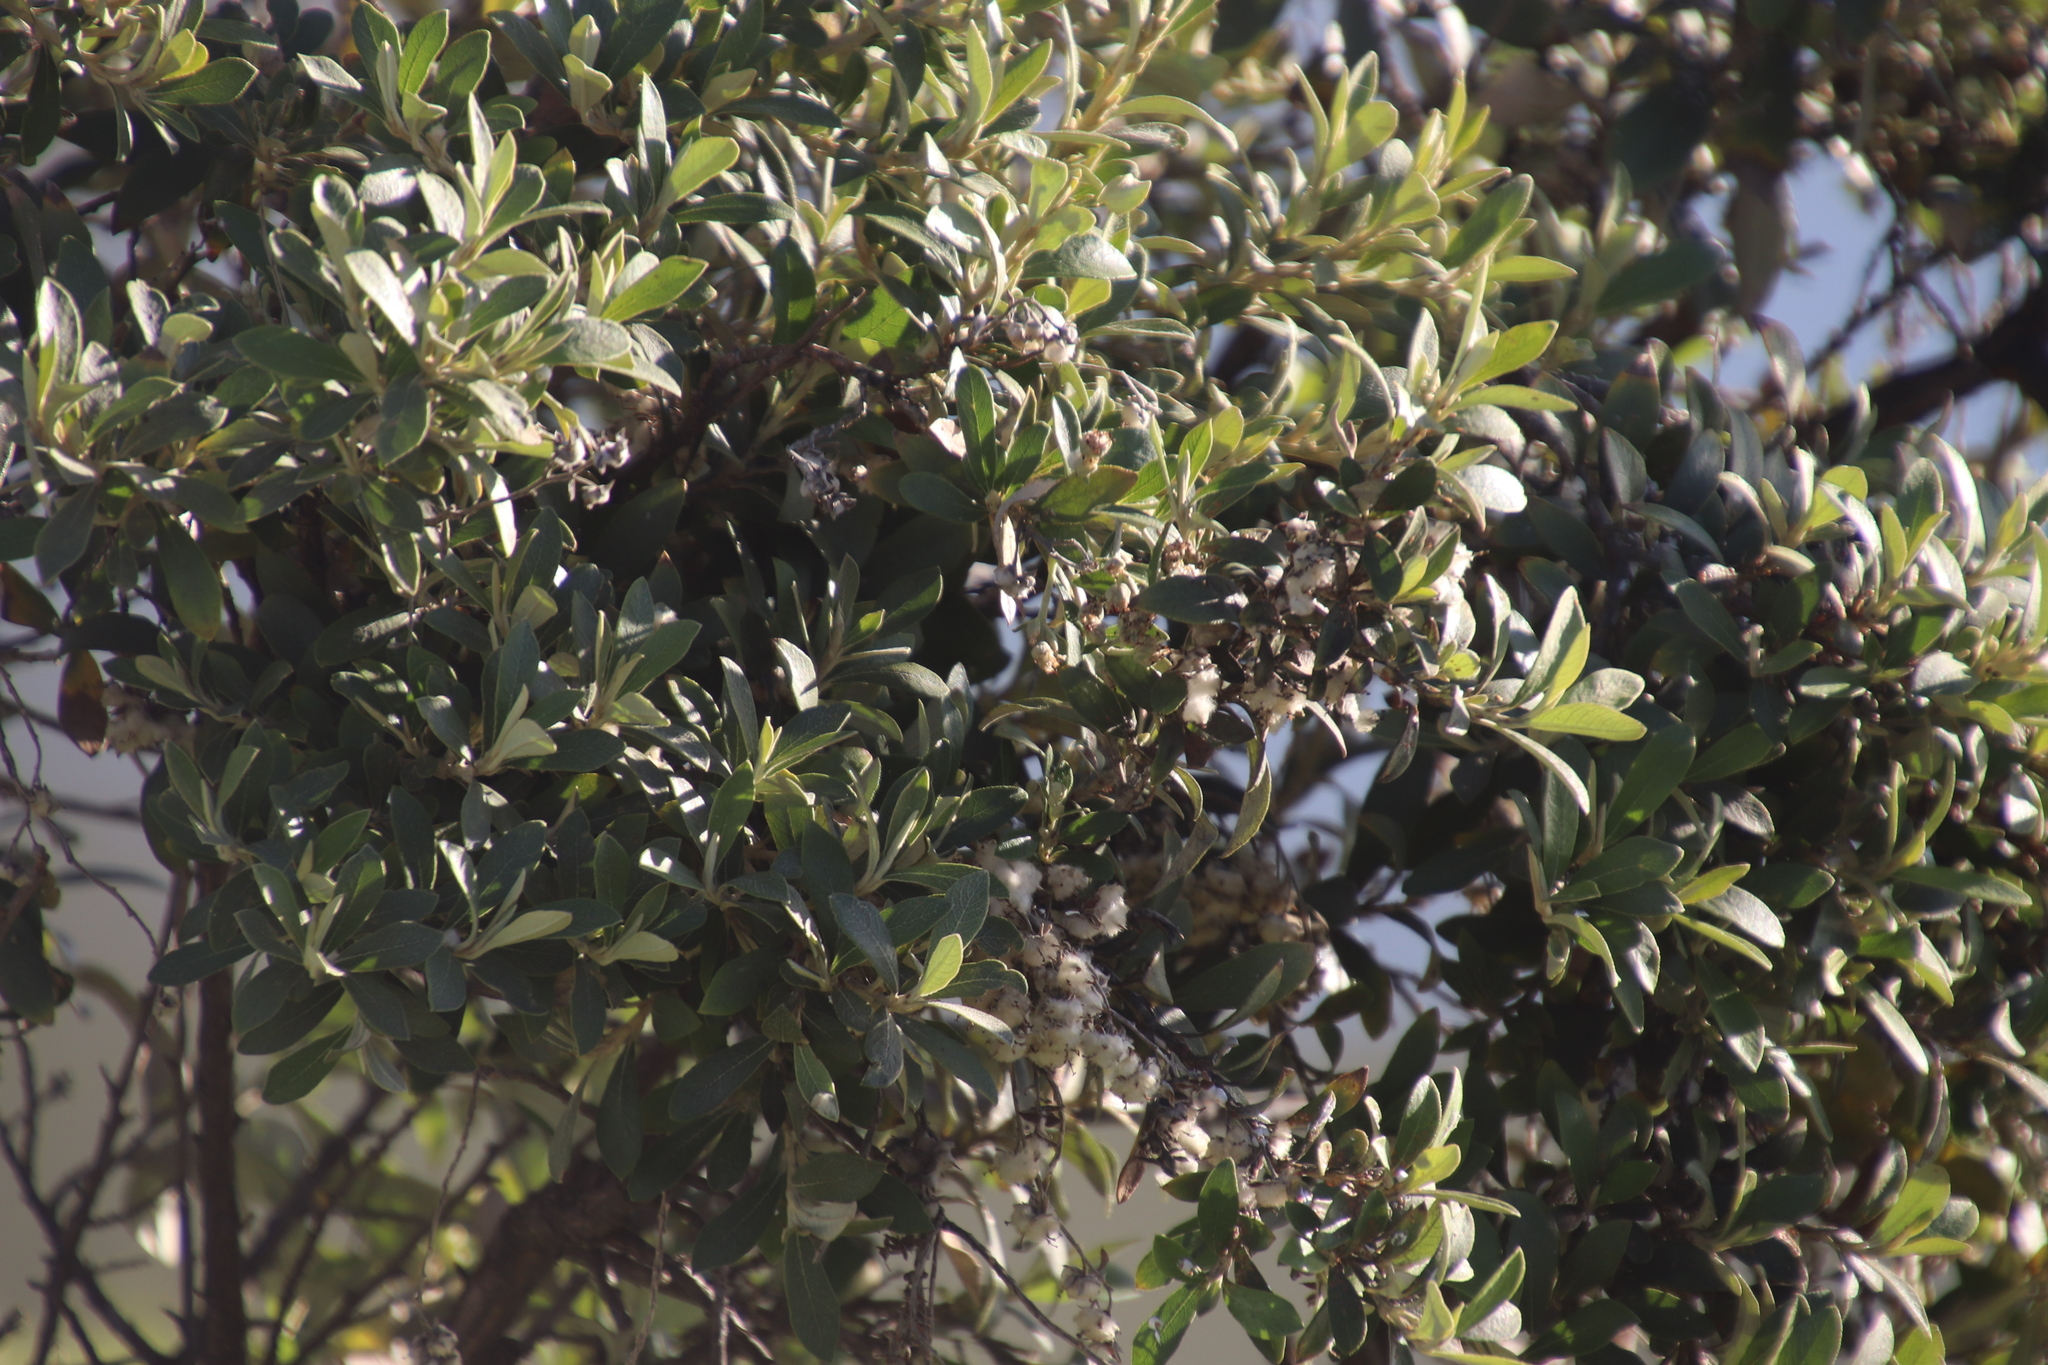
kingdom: Plantae
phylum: Tracheophyta
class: Magnoliopsida
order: Asterales
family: Asteraceae
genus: Tarchonanthus
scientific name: Tarchonanthus littoralis
